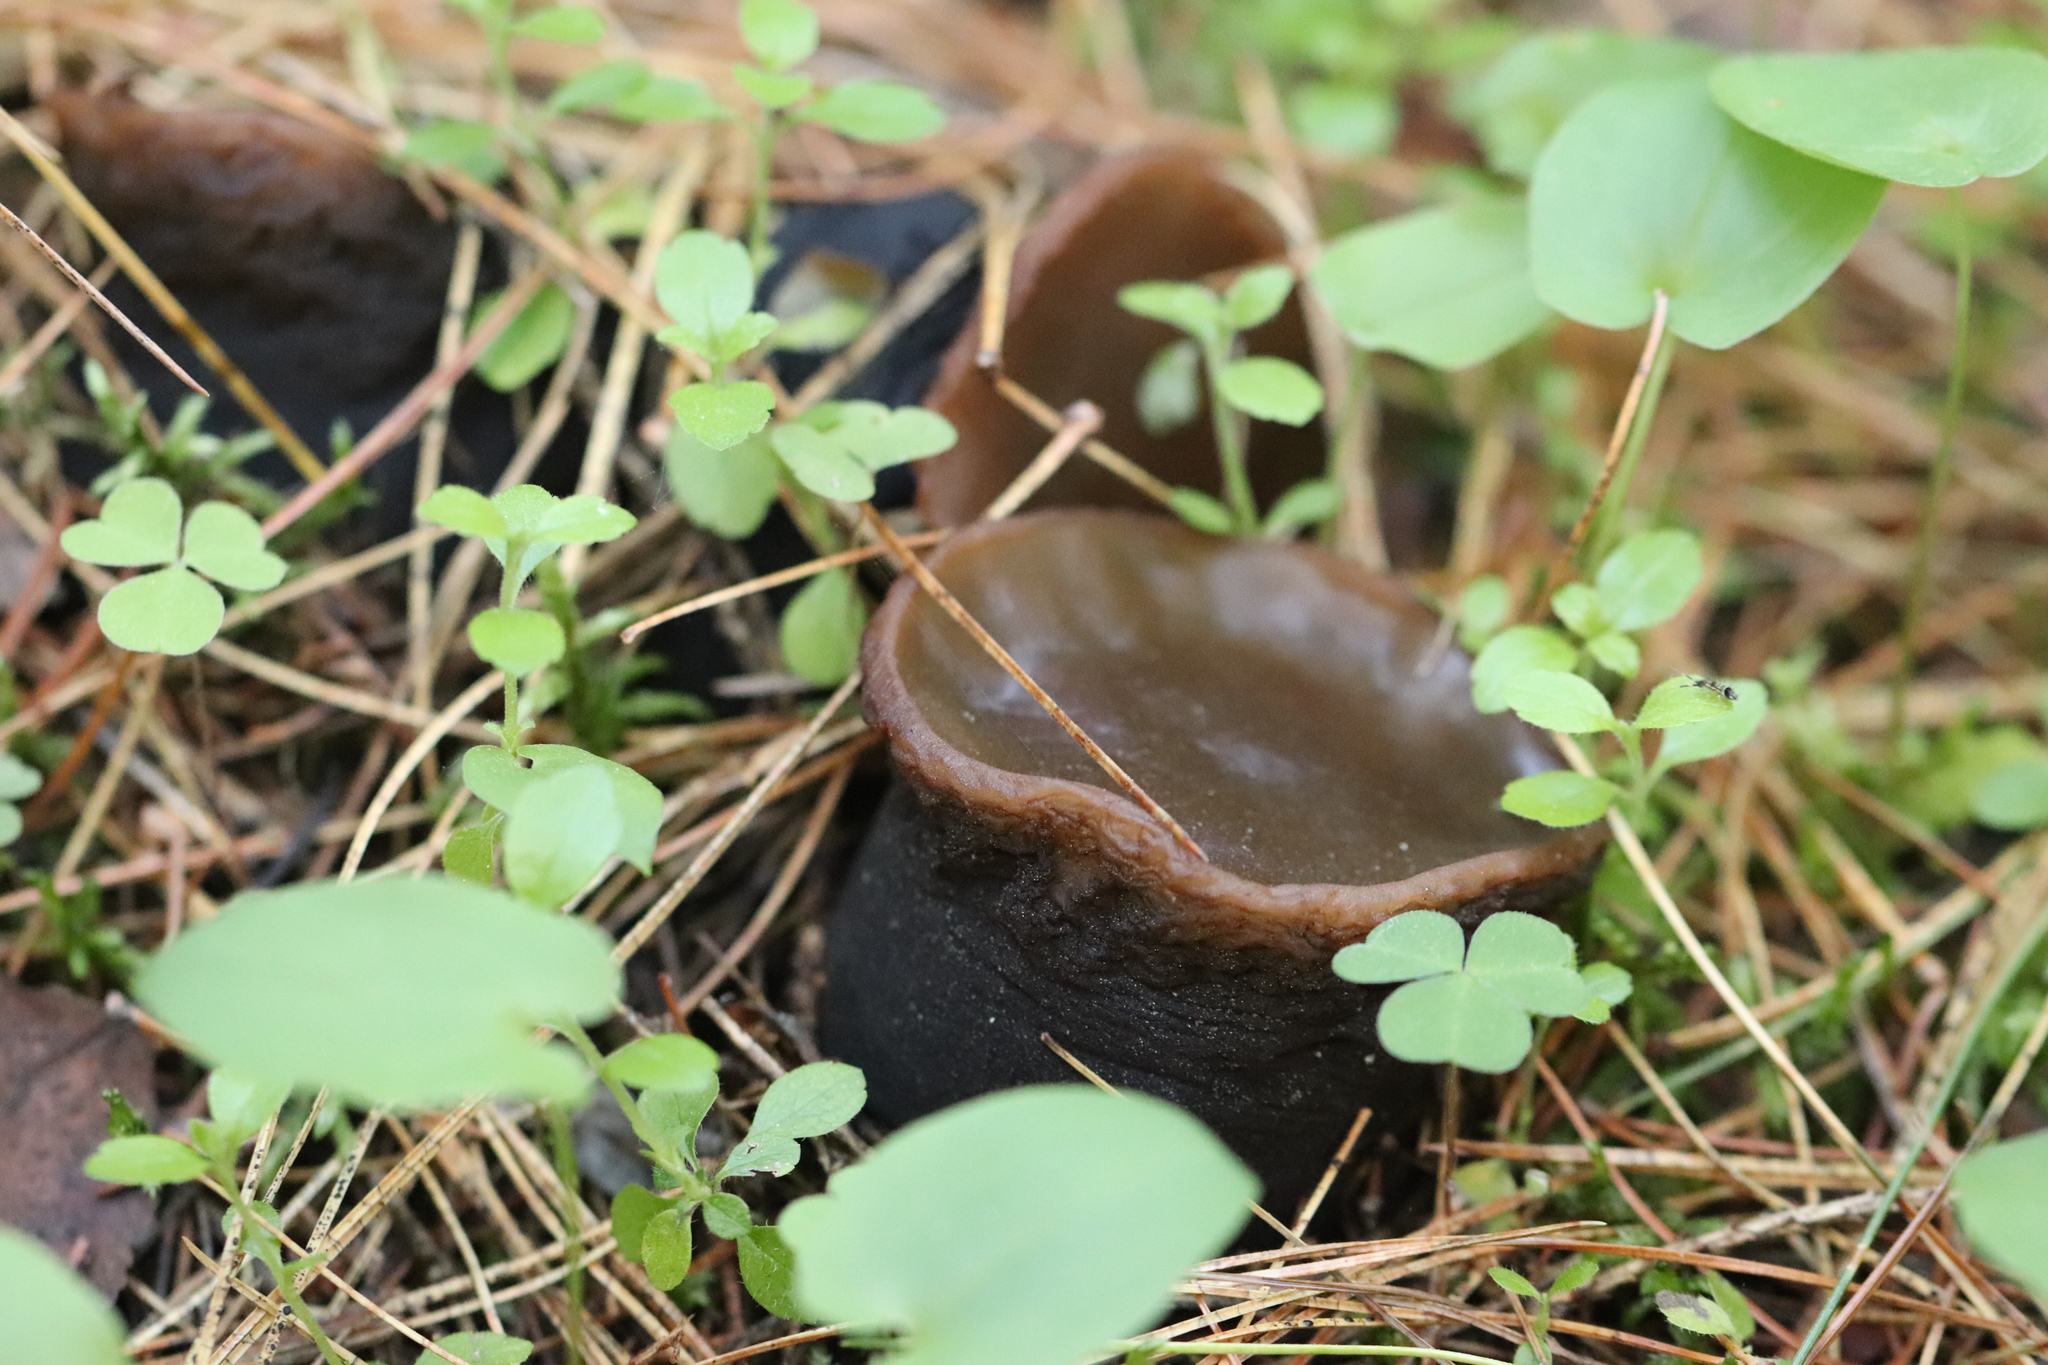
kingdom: Fungi
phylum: Ascomycota
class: Pezizomycetes
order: Pezizales
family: Sarcosomataceae
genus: Sarcosoma
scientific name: Sarcosoma globosum
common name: Charred-pancake cup
